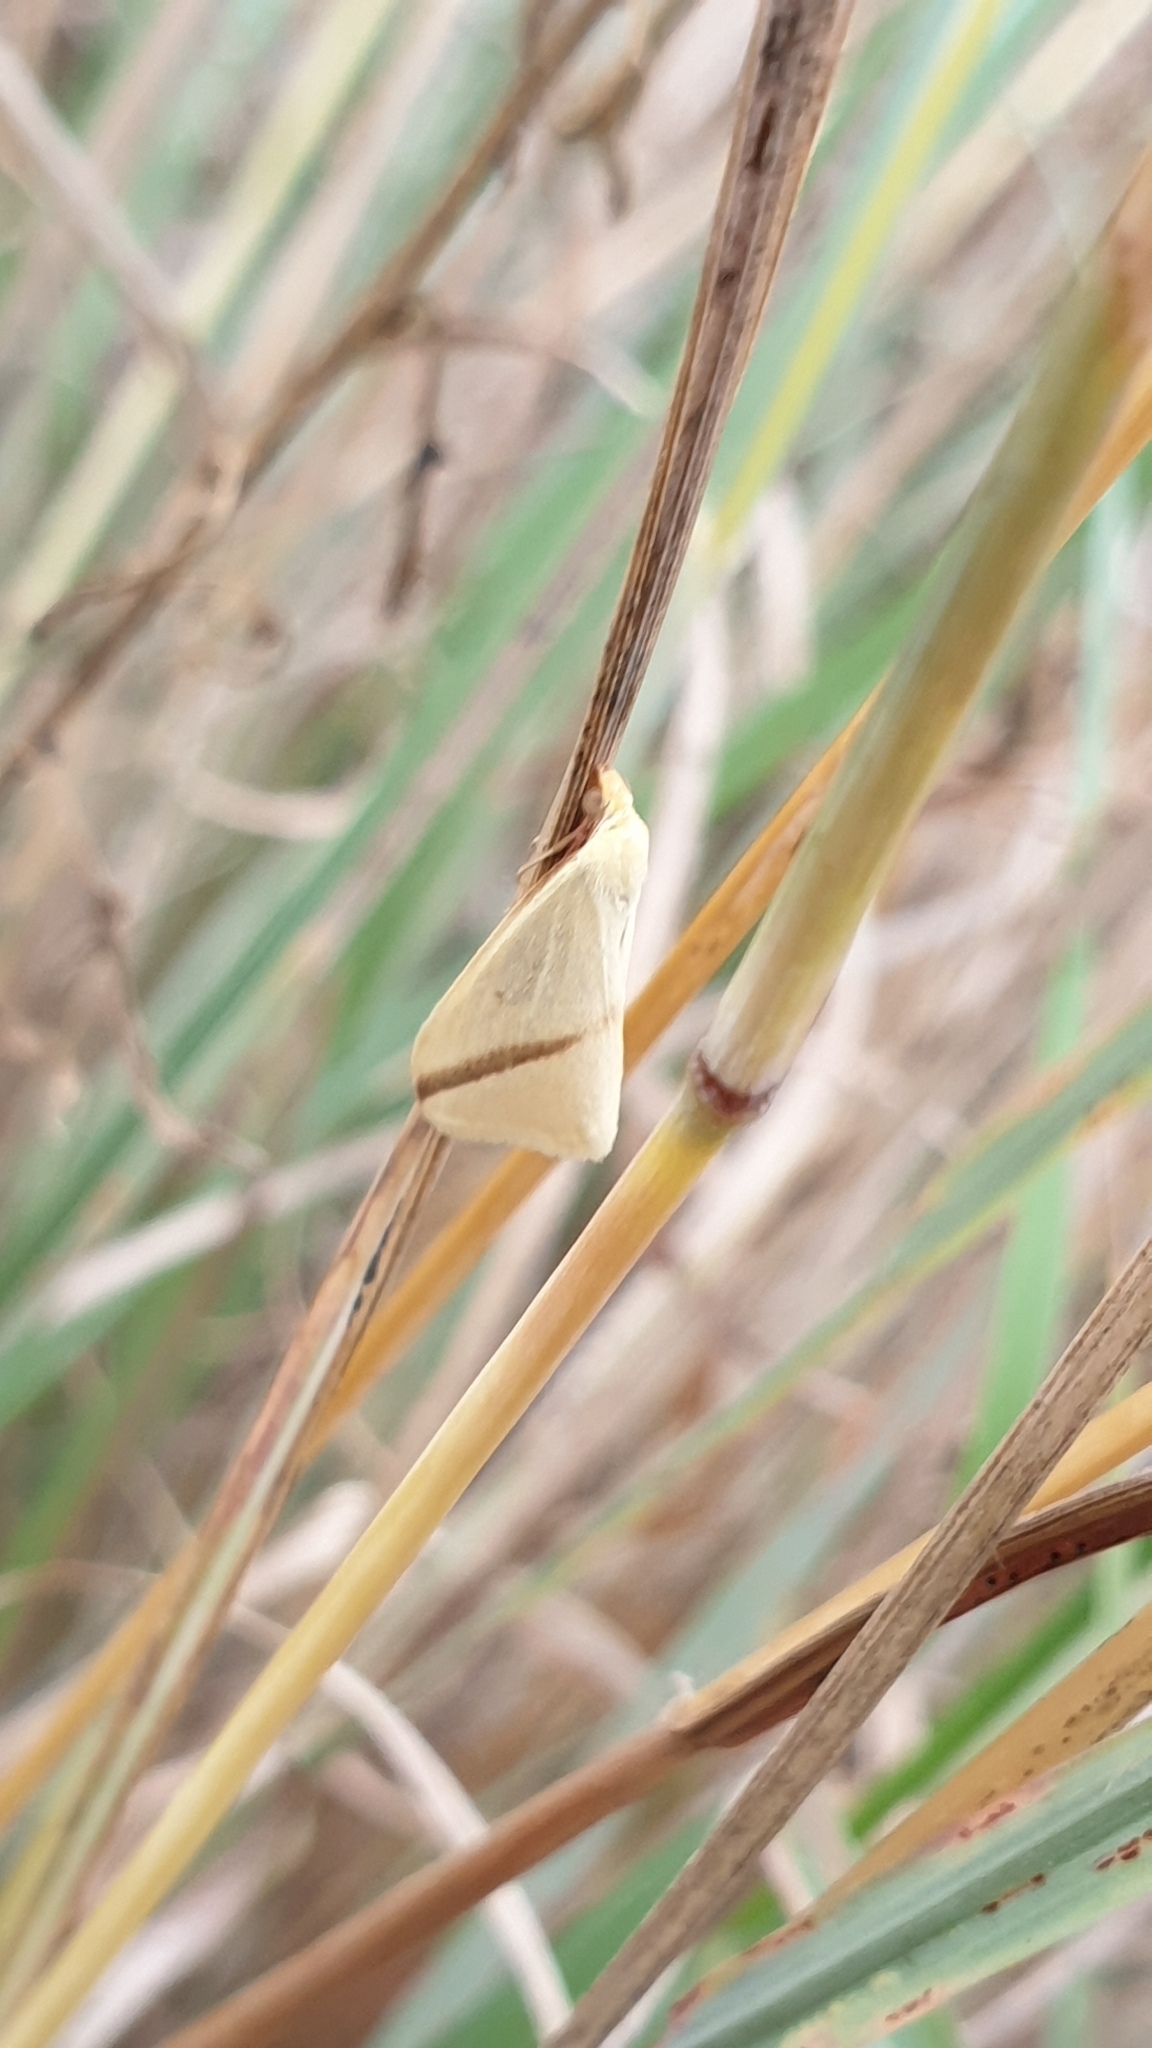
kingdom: Animalia
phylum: Arthropoda
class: Insecta
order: Lepidoptera
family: Geometridae
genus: Rhodometra
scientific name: Rhodometra sacraria
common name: Vestal
